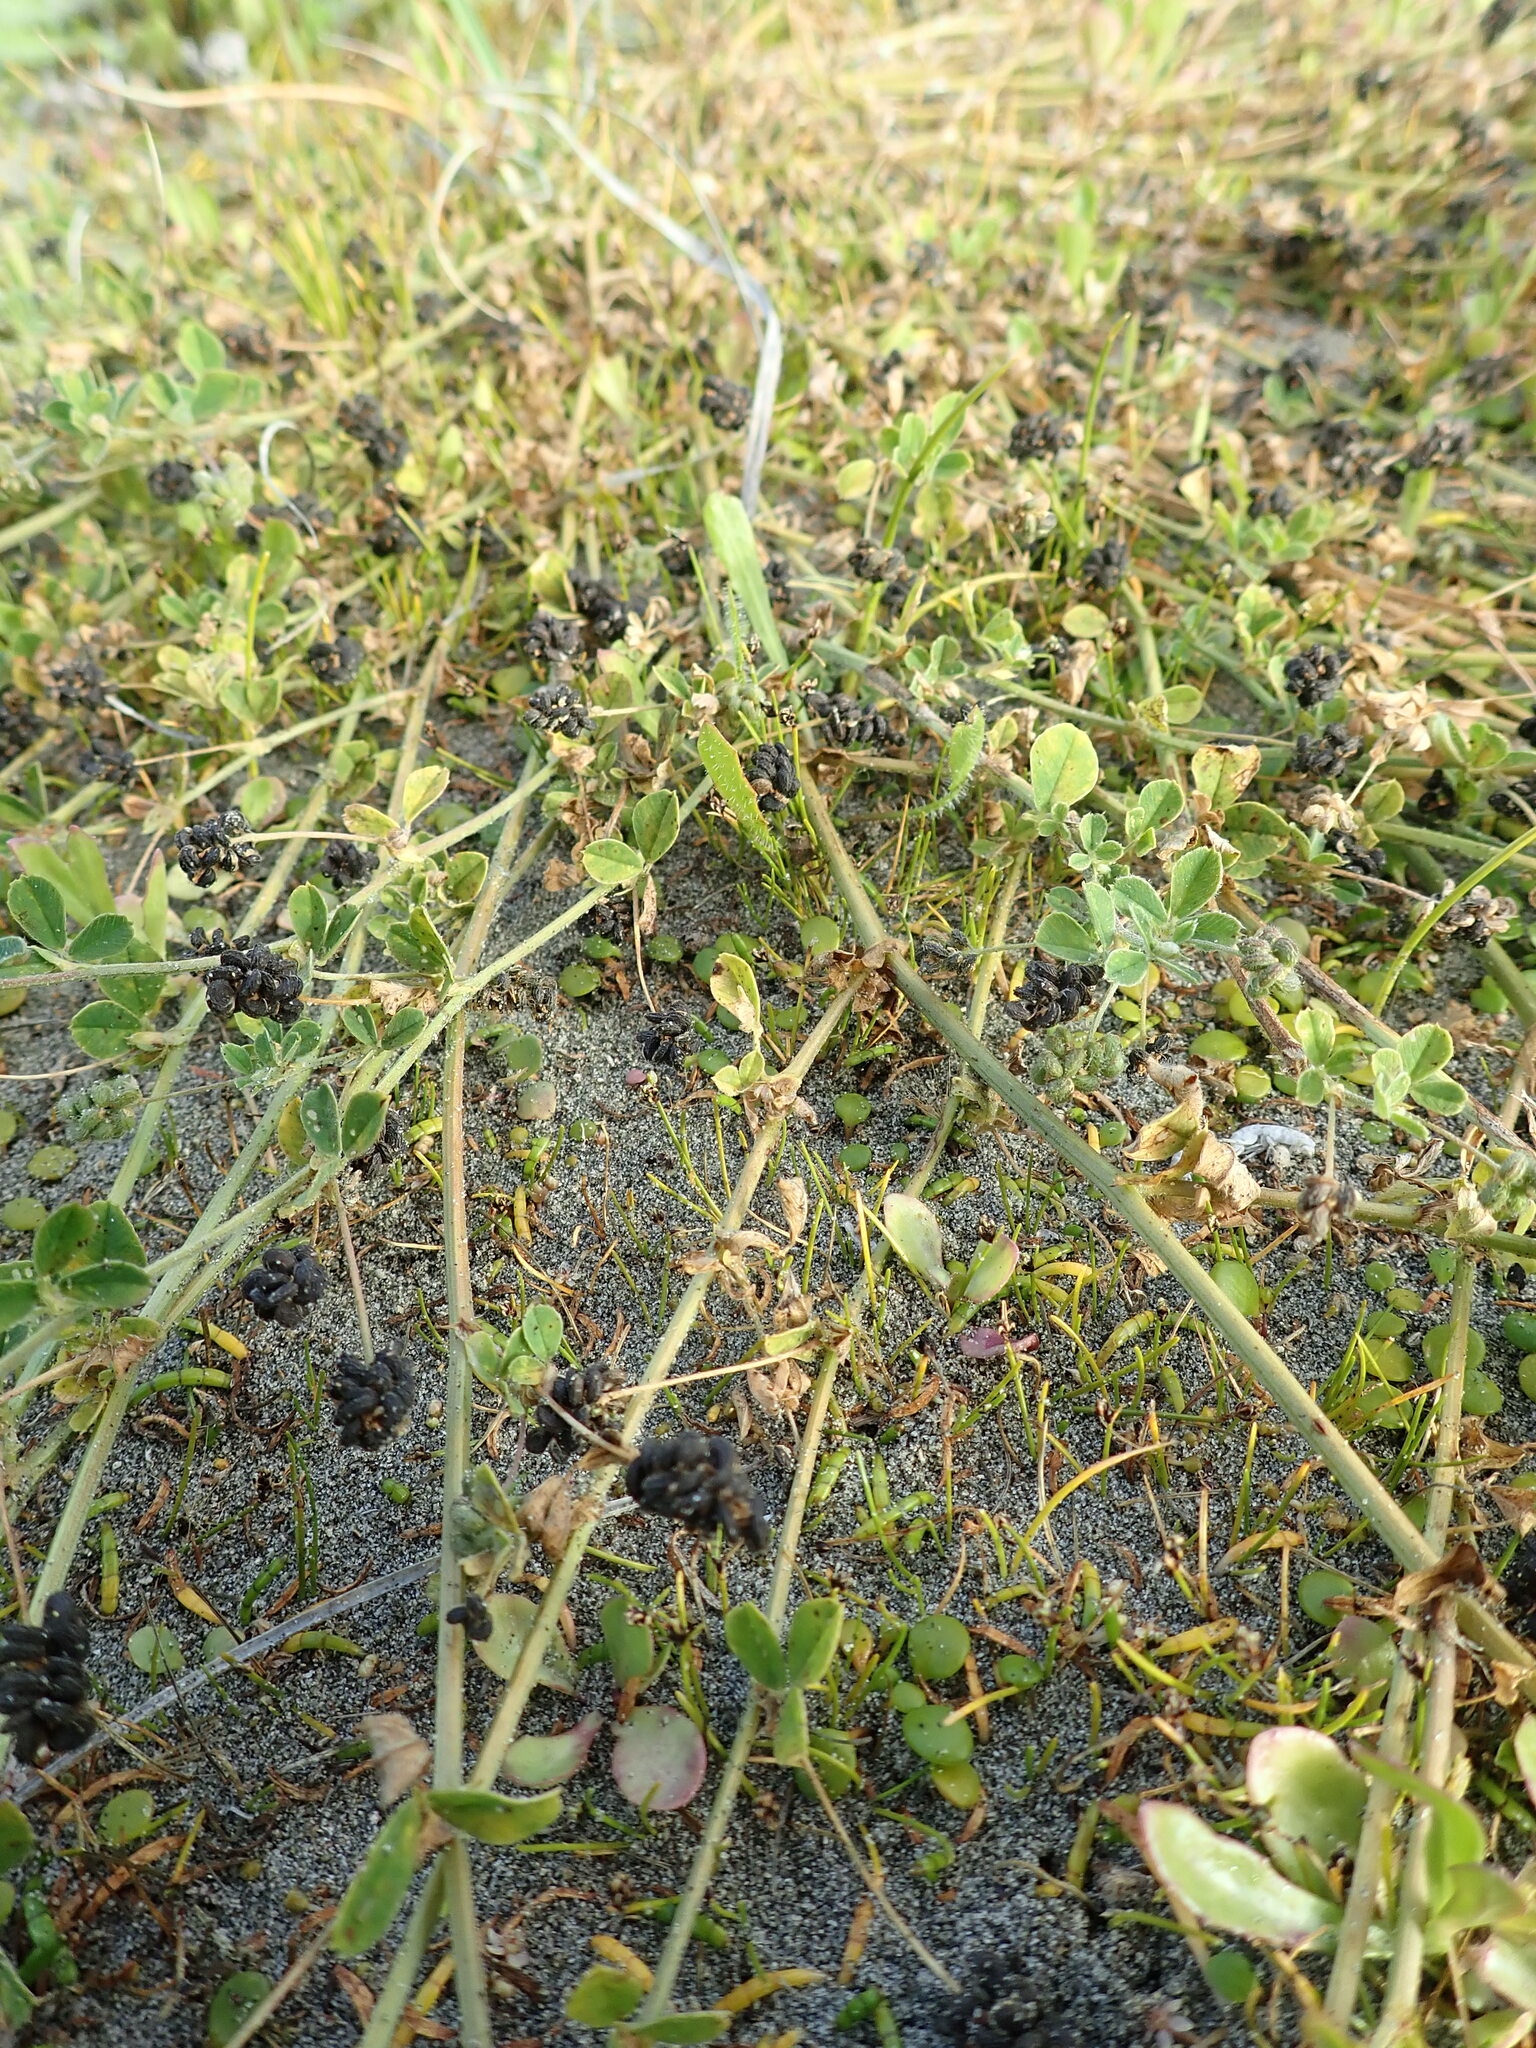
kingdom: Plantae
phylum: Tracheophyta
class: Magnoliopsida
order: Fabales
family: Fabaceae
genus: Medicago
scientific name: Medicago lupulina
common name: Black medick
